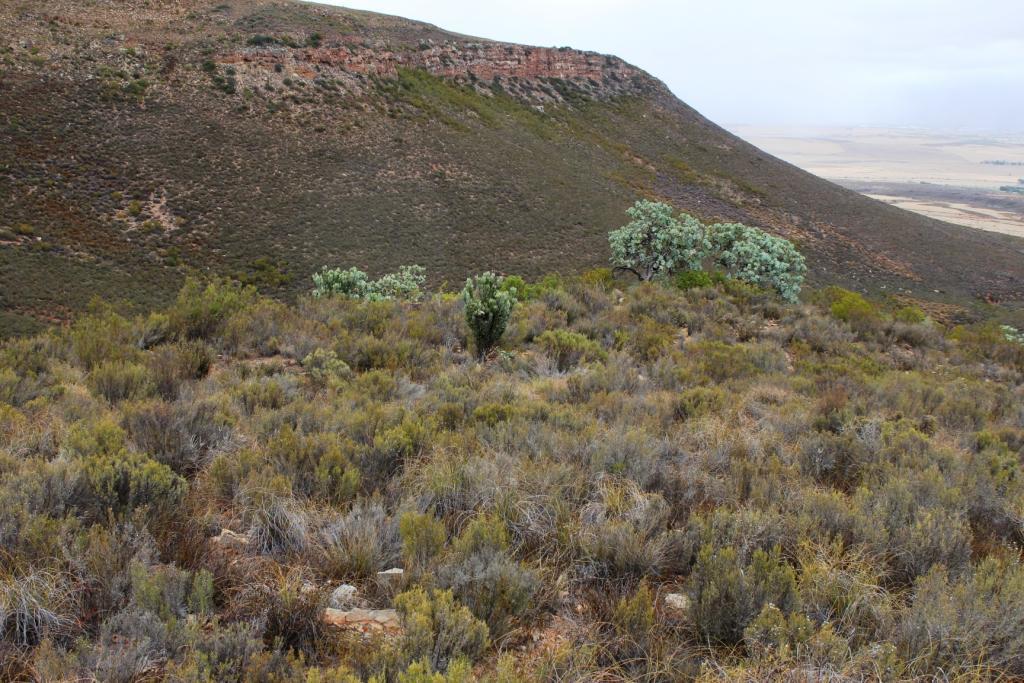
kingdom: Plantae
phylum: Tracheophyta
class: Magnoliopsida
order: Proteales
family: Proteaceae
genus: Protea
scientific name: Protea laurifolia
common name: Grey-leaf sugarbsh
